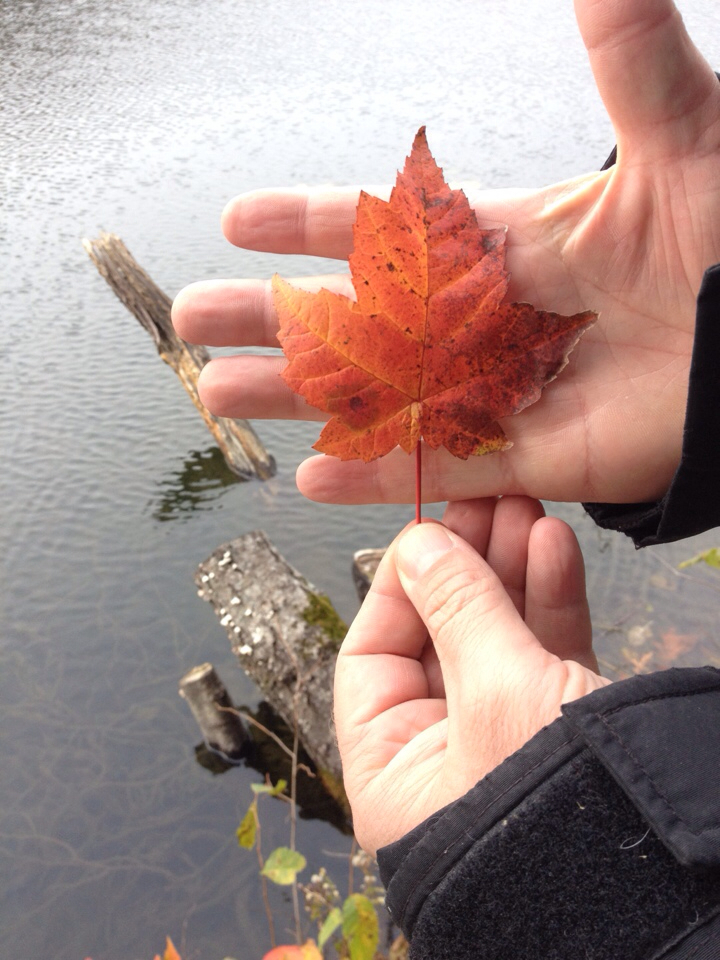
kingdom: Plantae
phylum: Tracheophyta
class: Magnoliopsida
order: Sapindales
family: Sapindaceae
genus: Acer
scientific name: Acer rubrum
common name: Red maple
